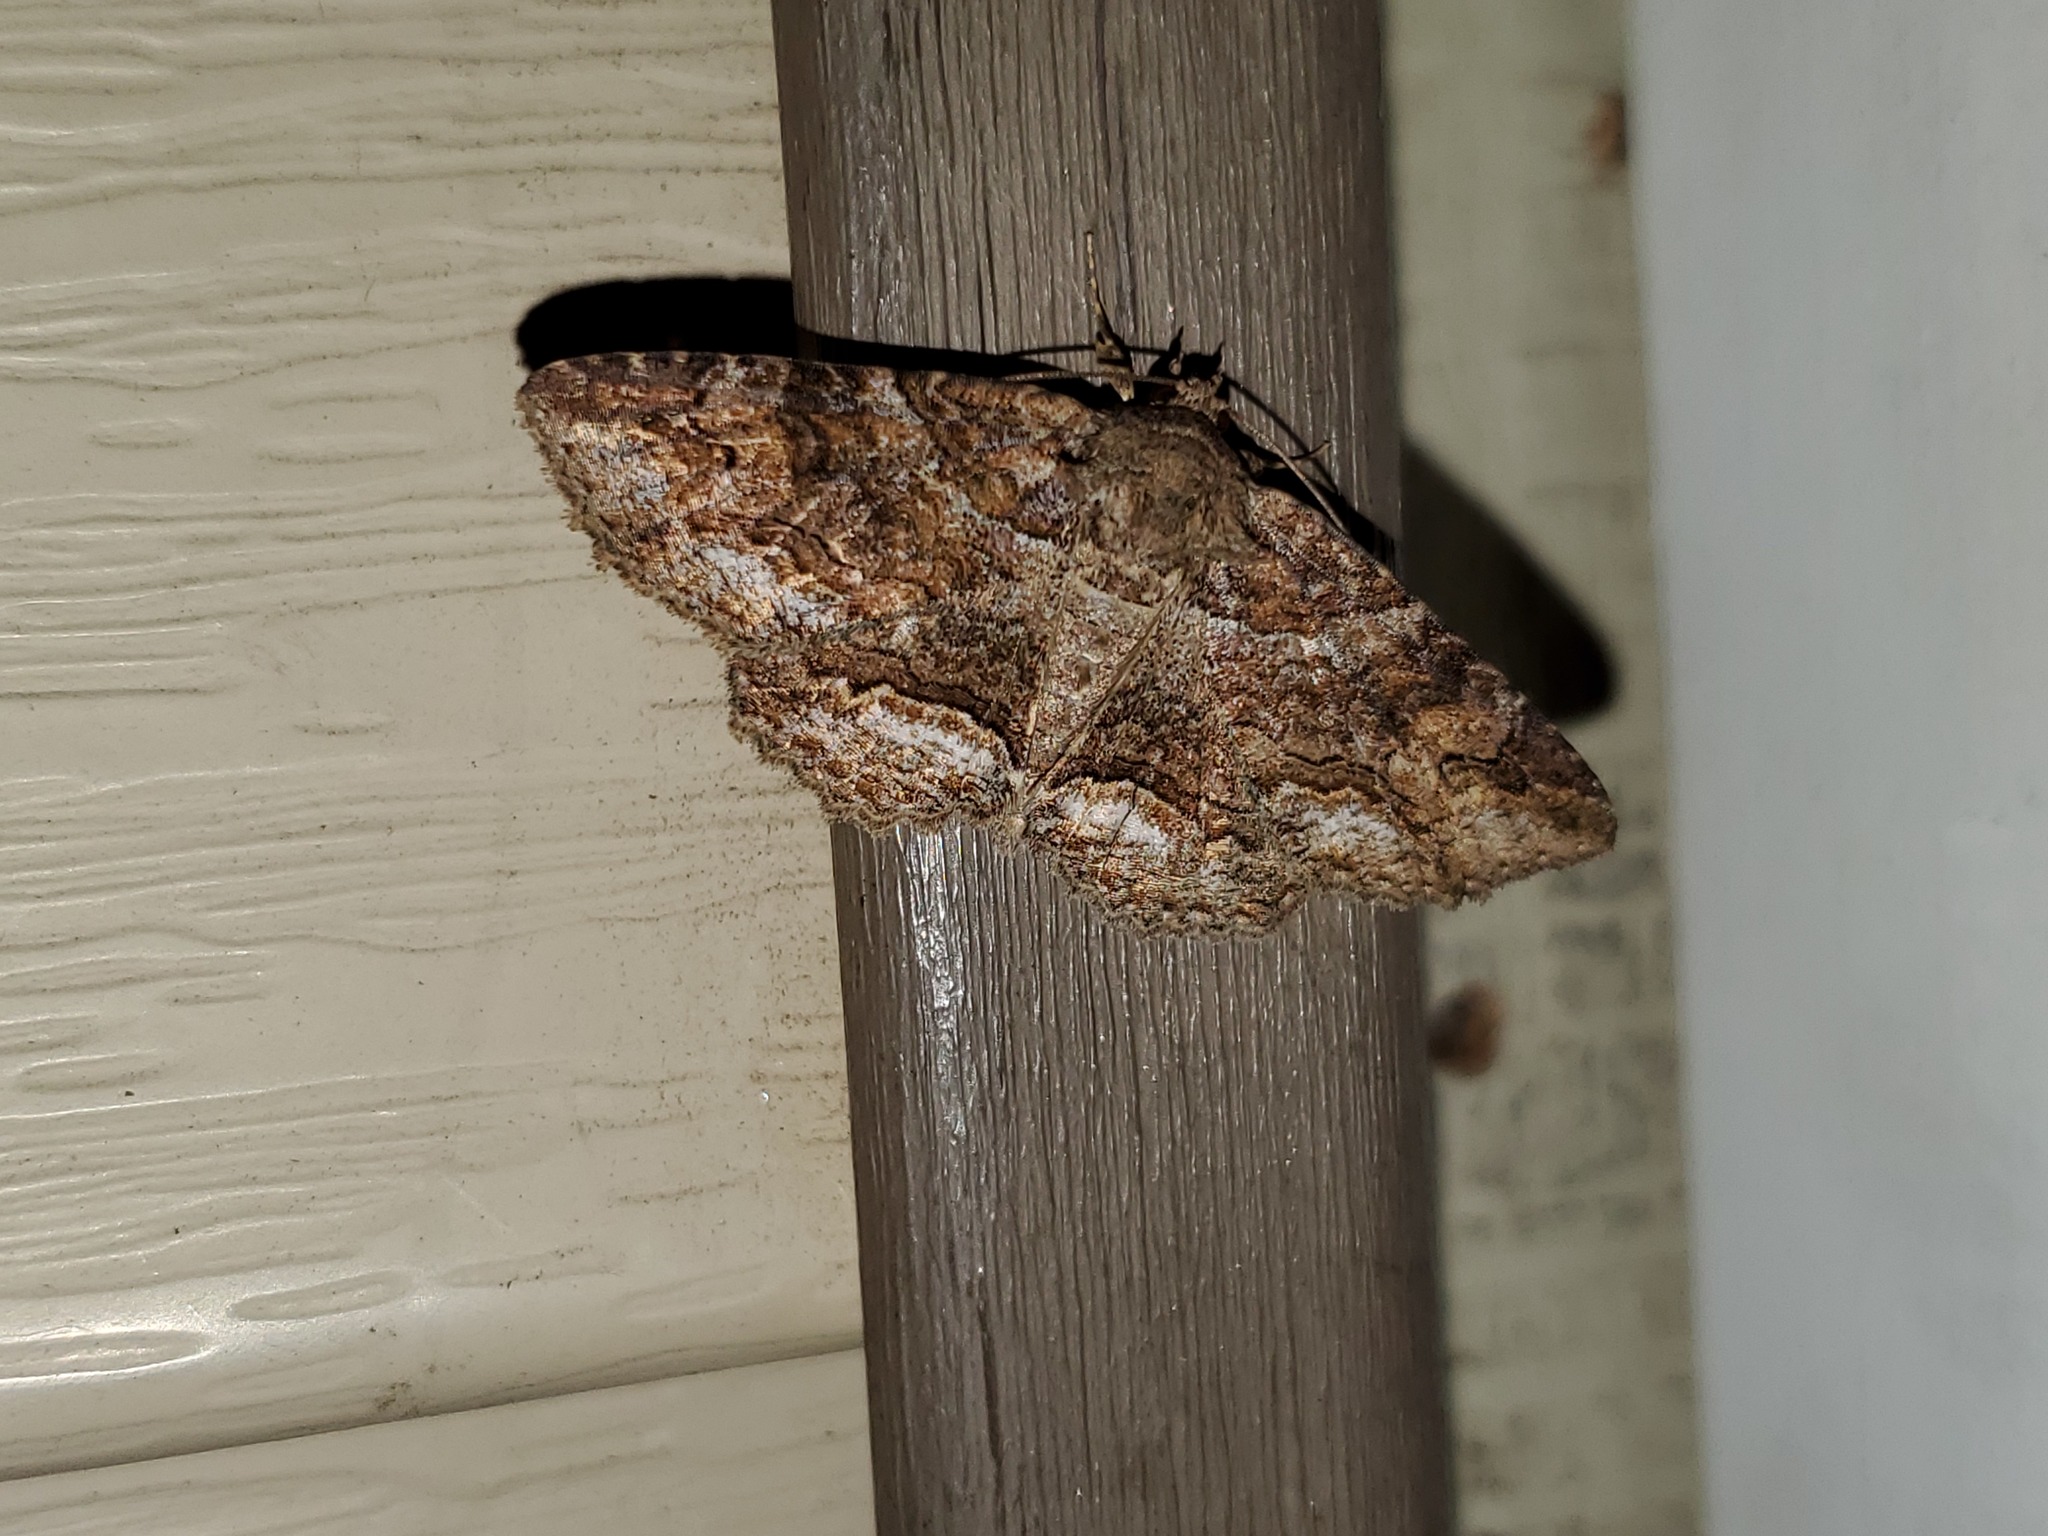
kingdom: Animalia
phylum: Arthropoda
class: Insecta
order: Lepidoptera
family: Erebidae
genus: Zale
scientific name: Zale galbanata
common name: Maple zale
